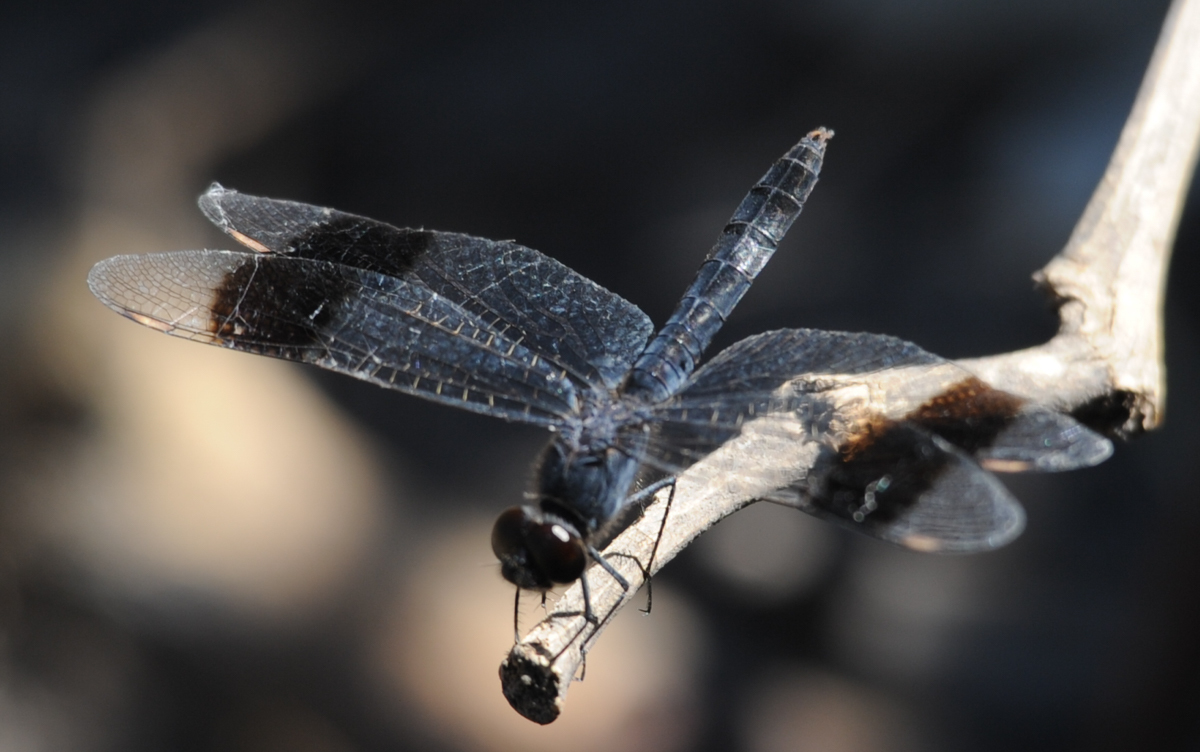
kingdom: Animalia
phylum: Arthropoda
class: Insecta
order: Odonata
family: Libellulidae
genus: Brachythemis
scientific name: Brachythemis leucosticta
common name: Banded groundling
